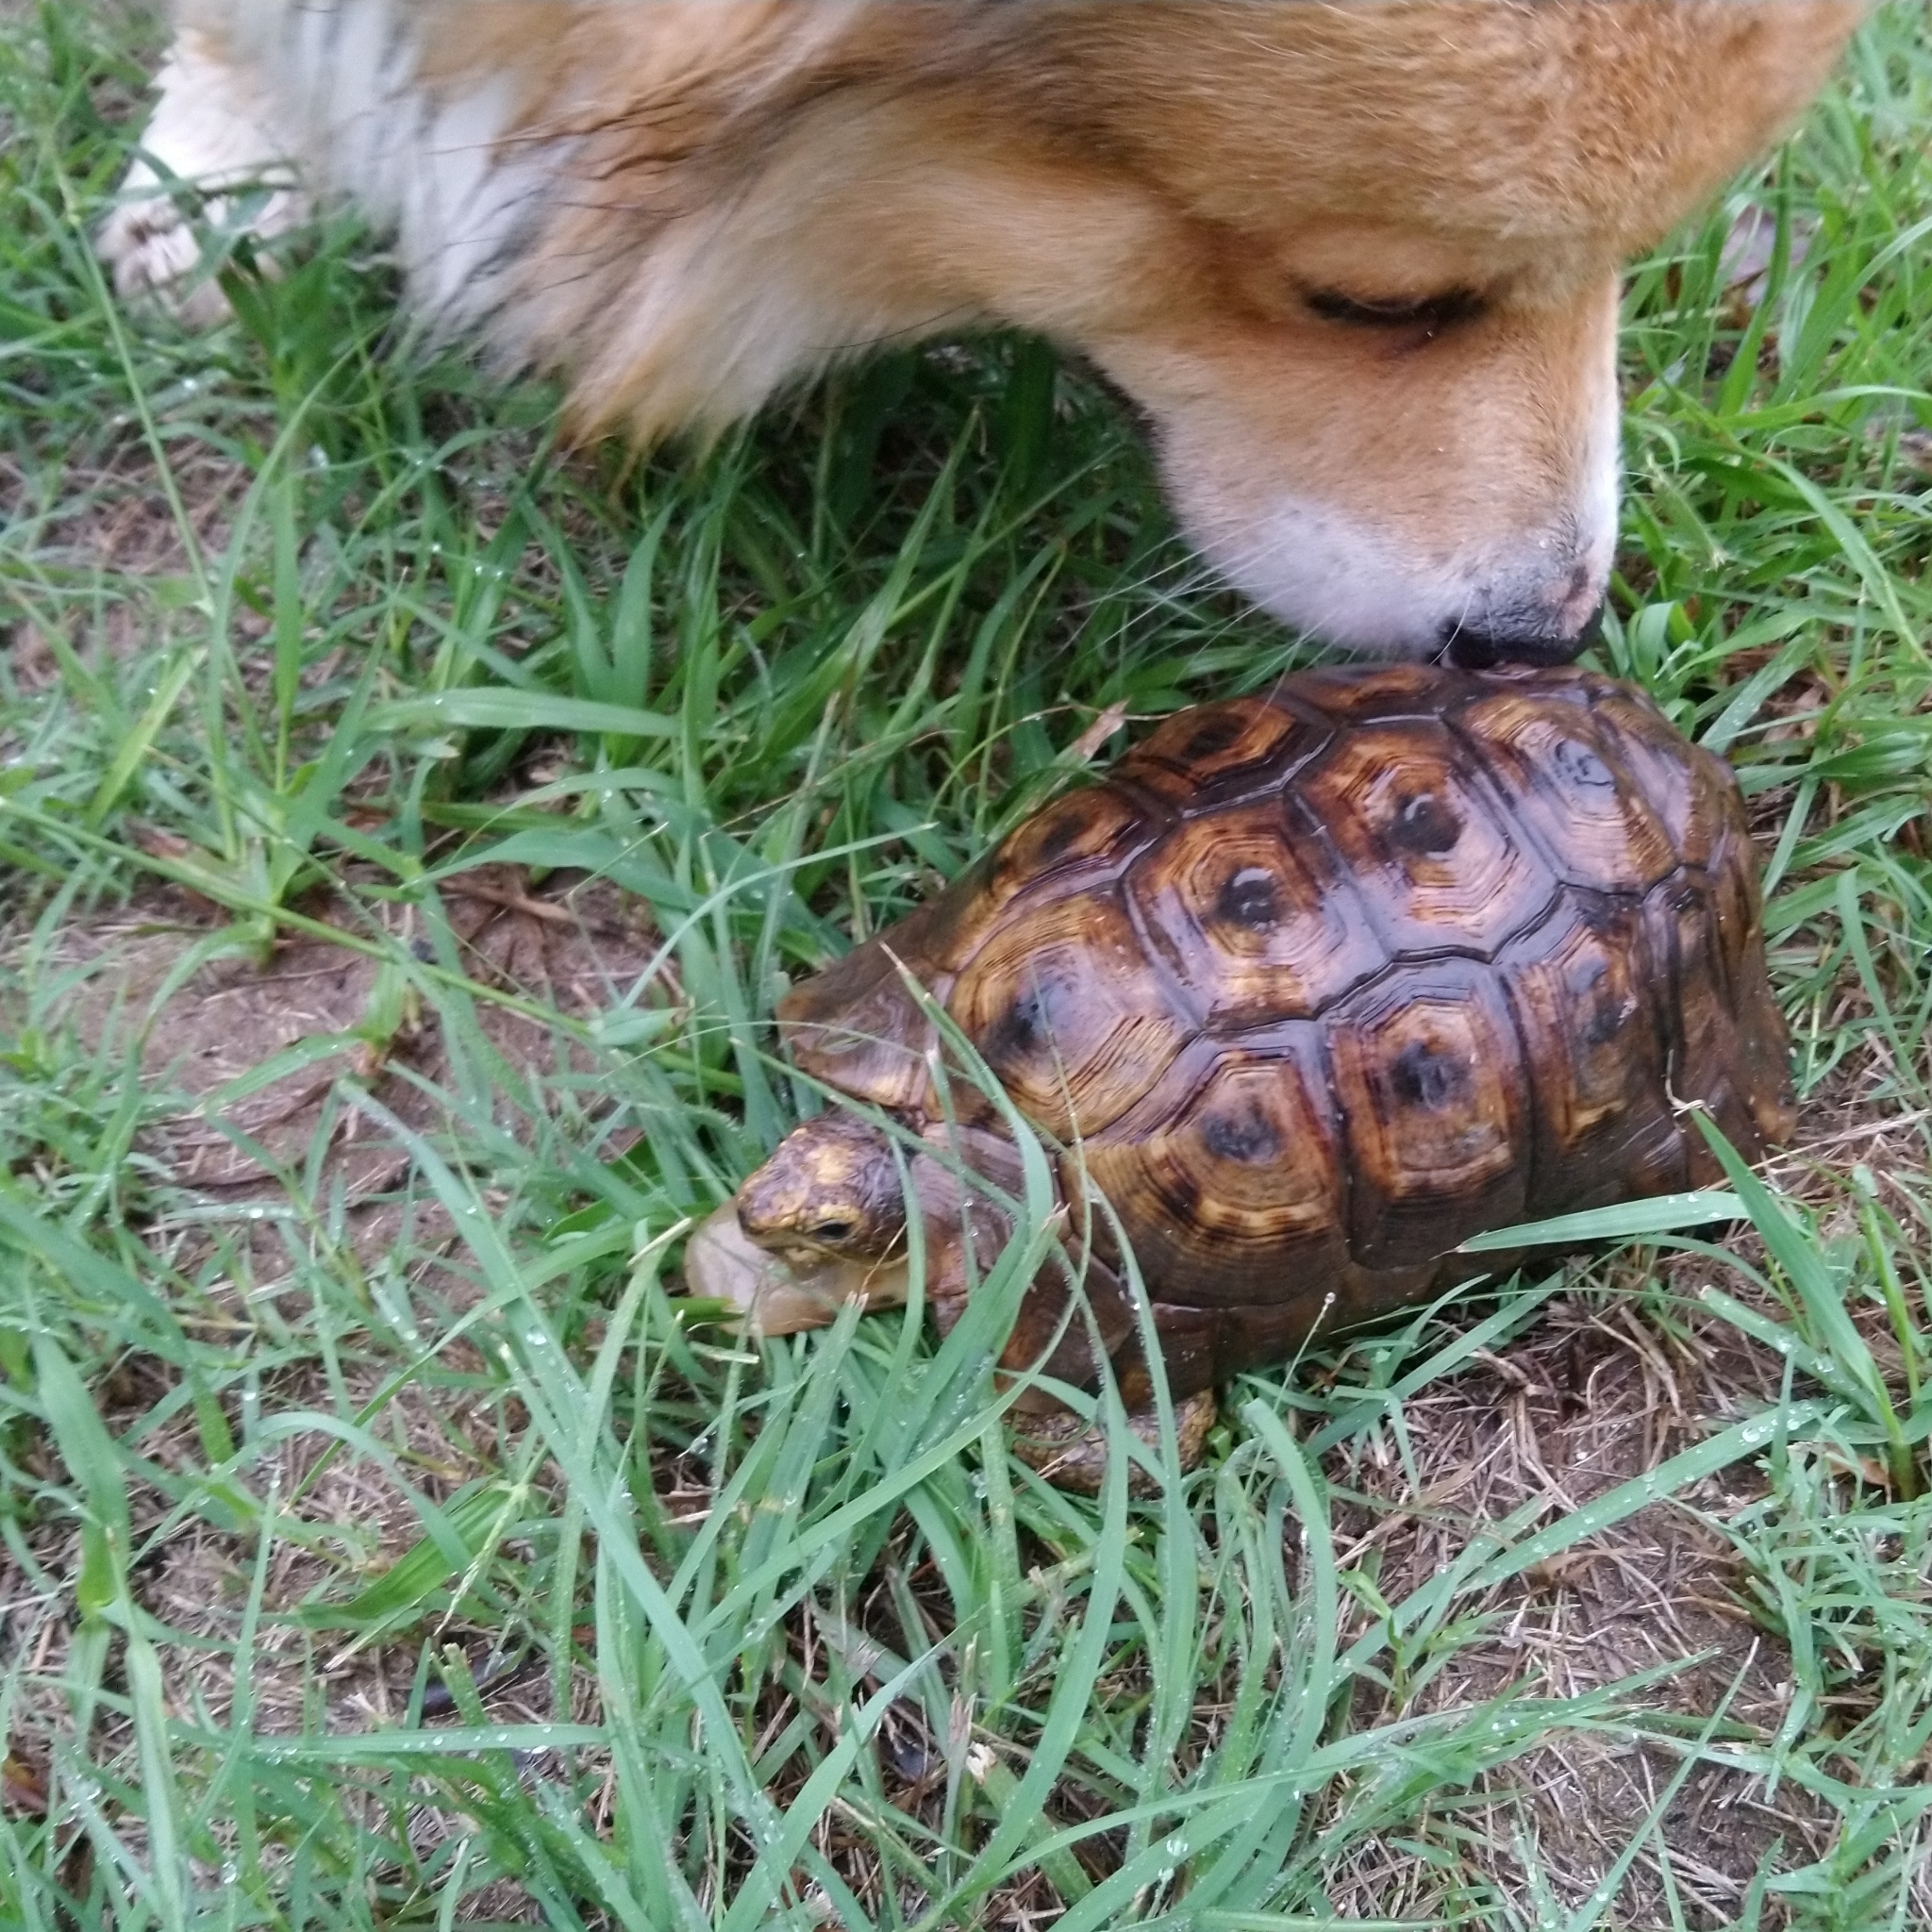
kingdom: Animalia
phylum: Chordata
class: Testudines
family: Testudinidae
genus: Chersina
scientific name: Chersina angulata
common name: South african bowsprit tortoise
